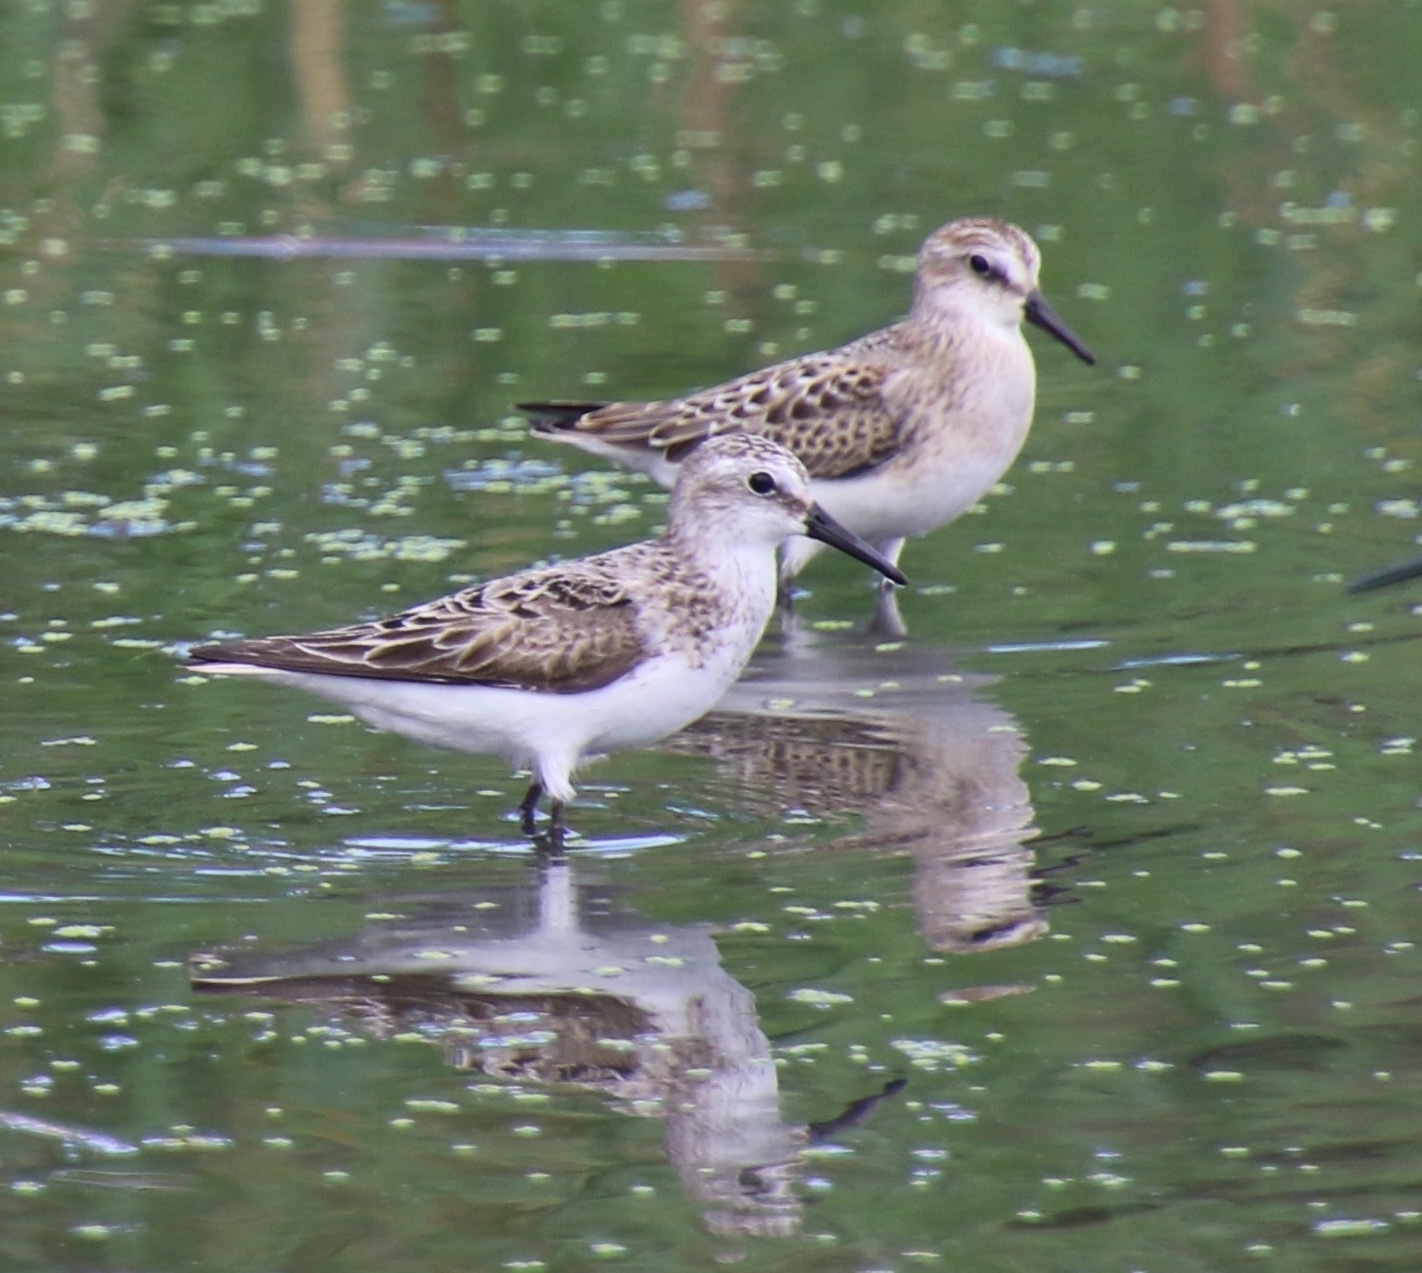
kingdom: Animalia
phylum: Chordata
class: Aves
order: Charadriiformes
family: Scolopacidae
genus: Calidris
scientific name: Calidris pusilla
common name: Semipalmated sandpiper
